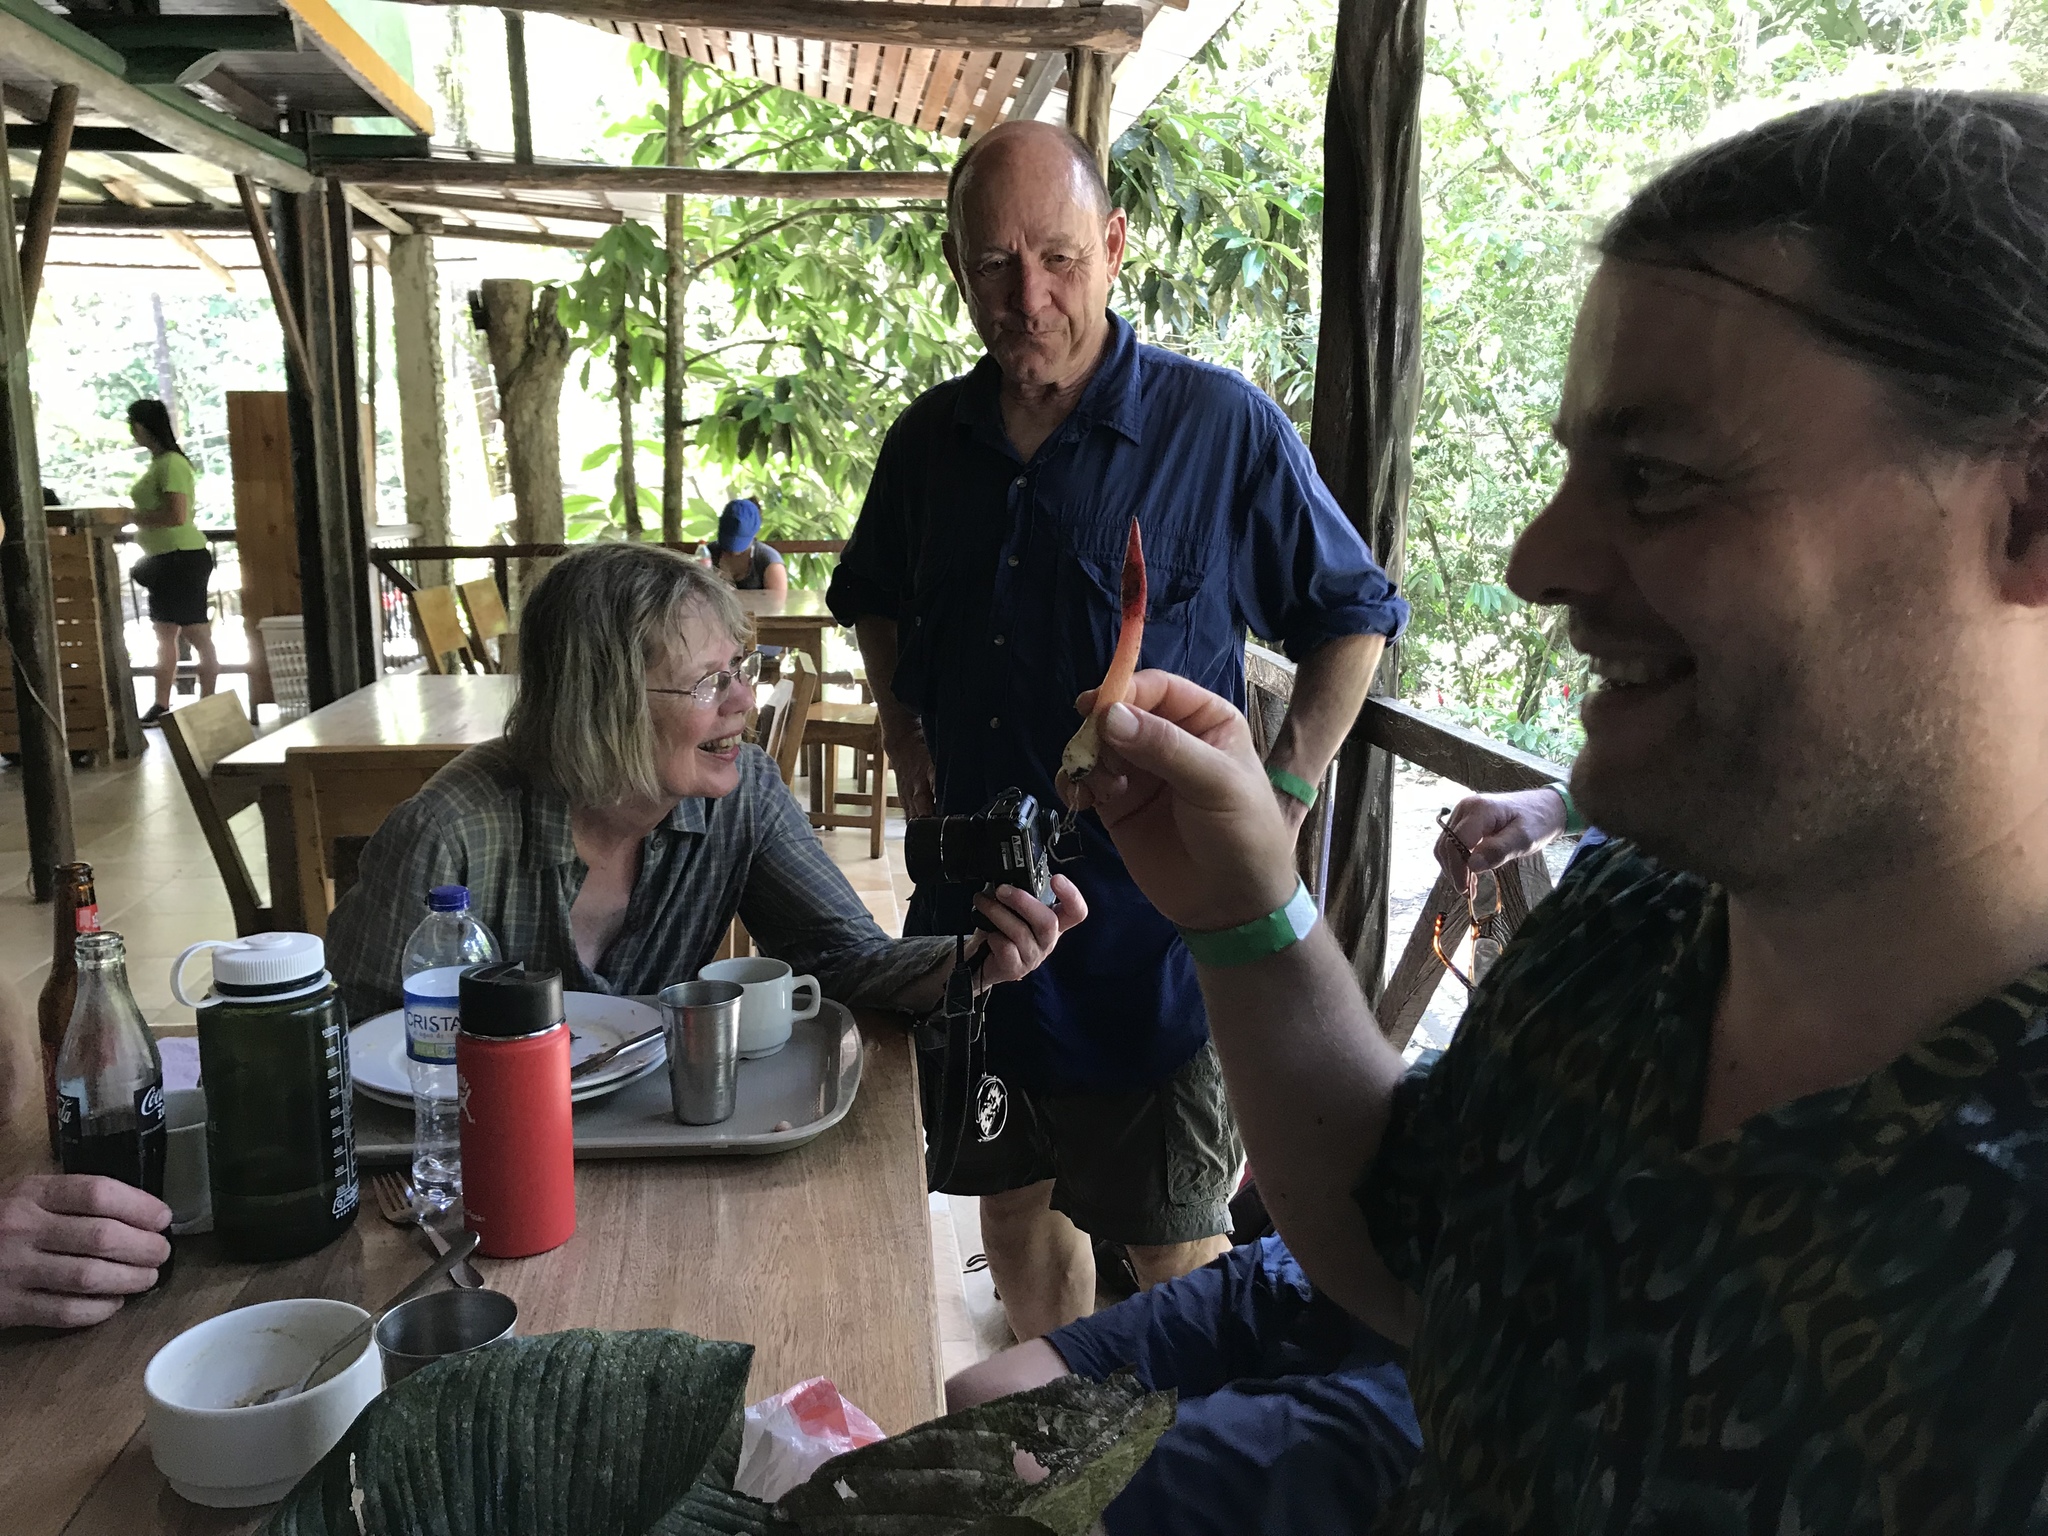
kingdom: Fungi
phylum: Basidiomycota
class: Agaricomycetes
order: Phallales
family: Phallaceae
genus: Mutinus
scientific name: Mutinus argentinus
